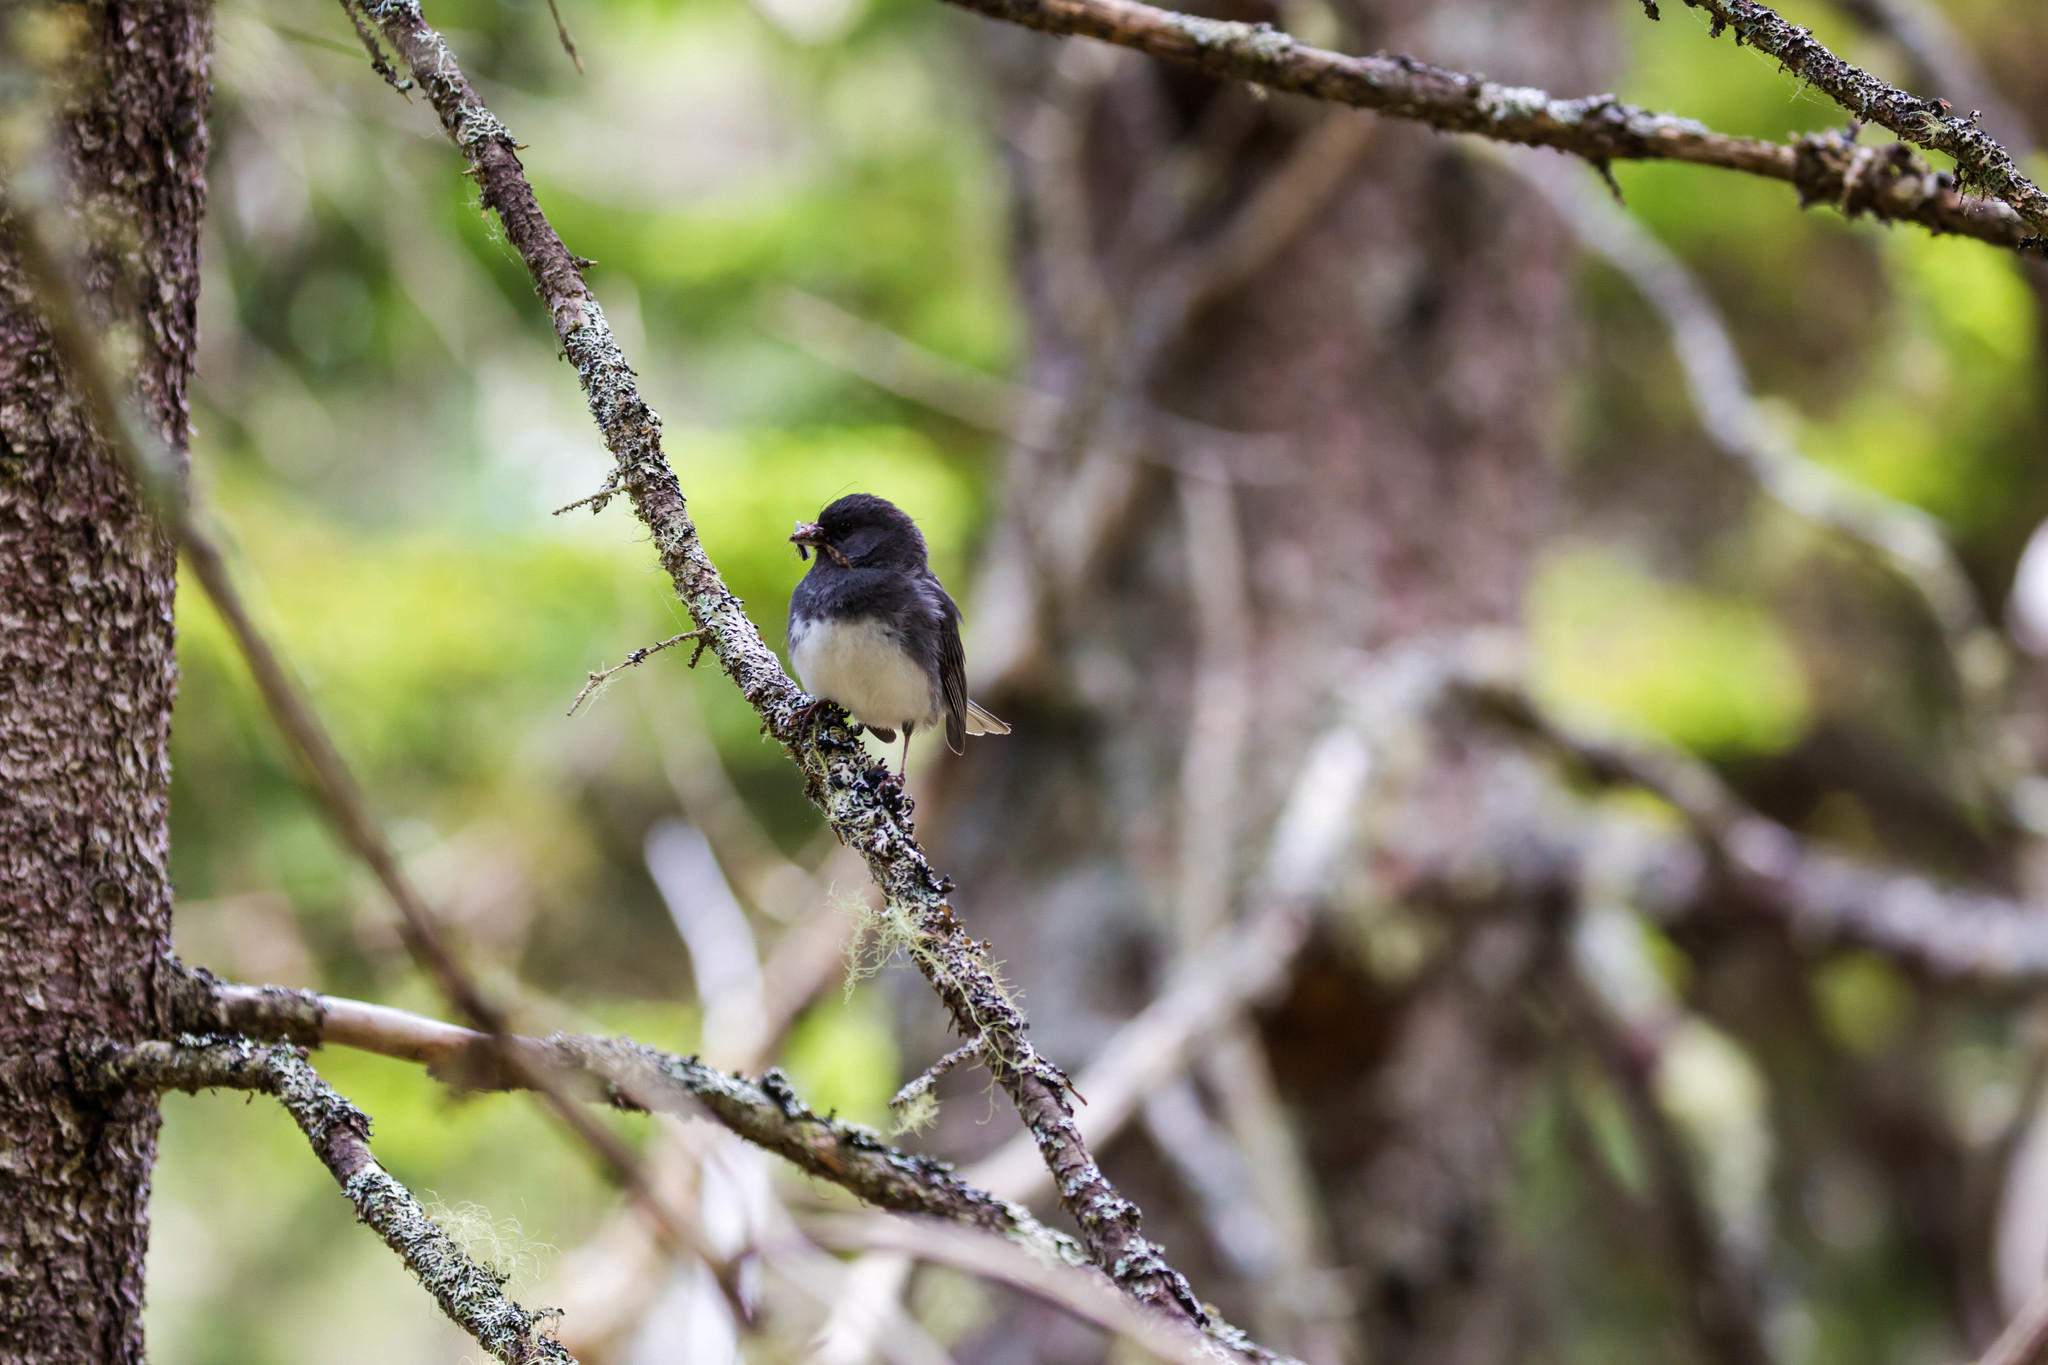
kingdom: Animalia
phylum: Chordata
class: Aves
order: Passeriformes
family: Passerellidae
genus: Junco
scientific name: Junco hyemalis
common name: Dark-eyed junco
